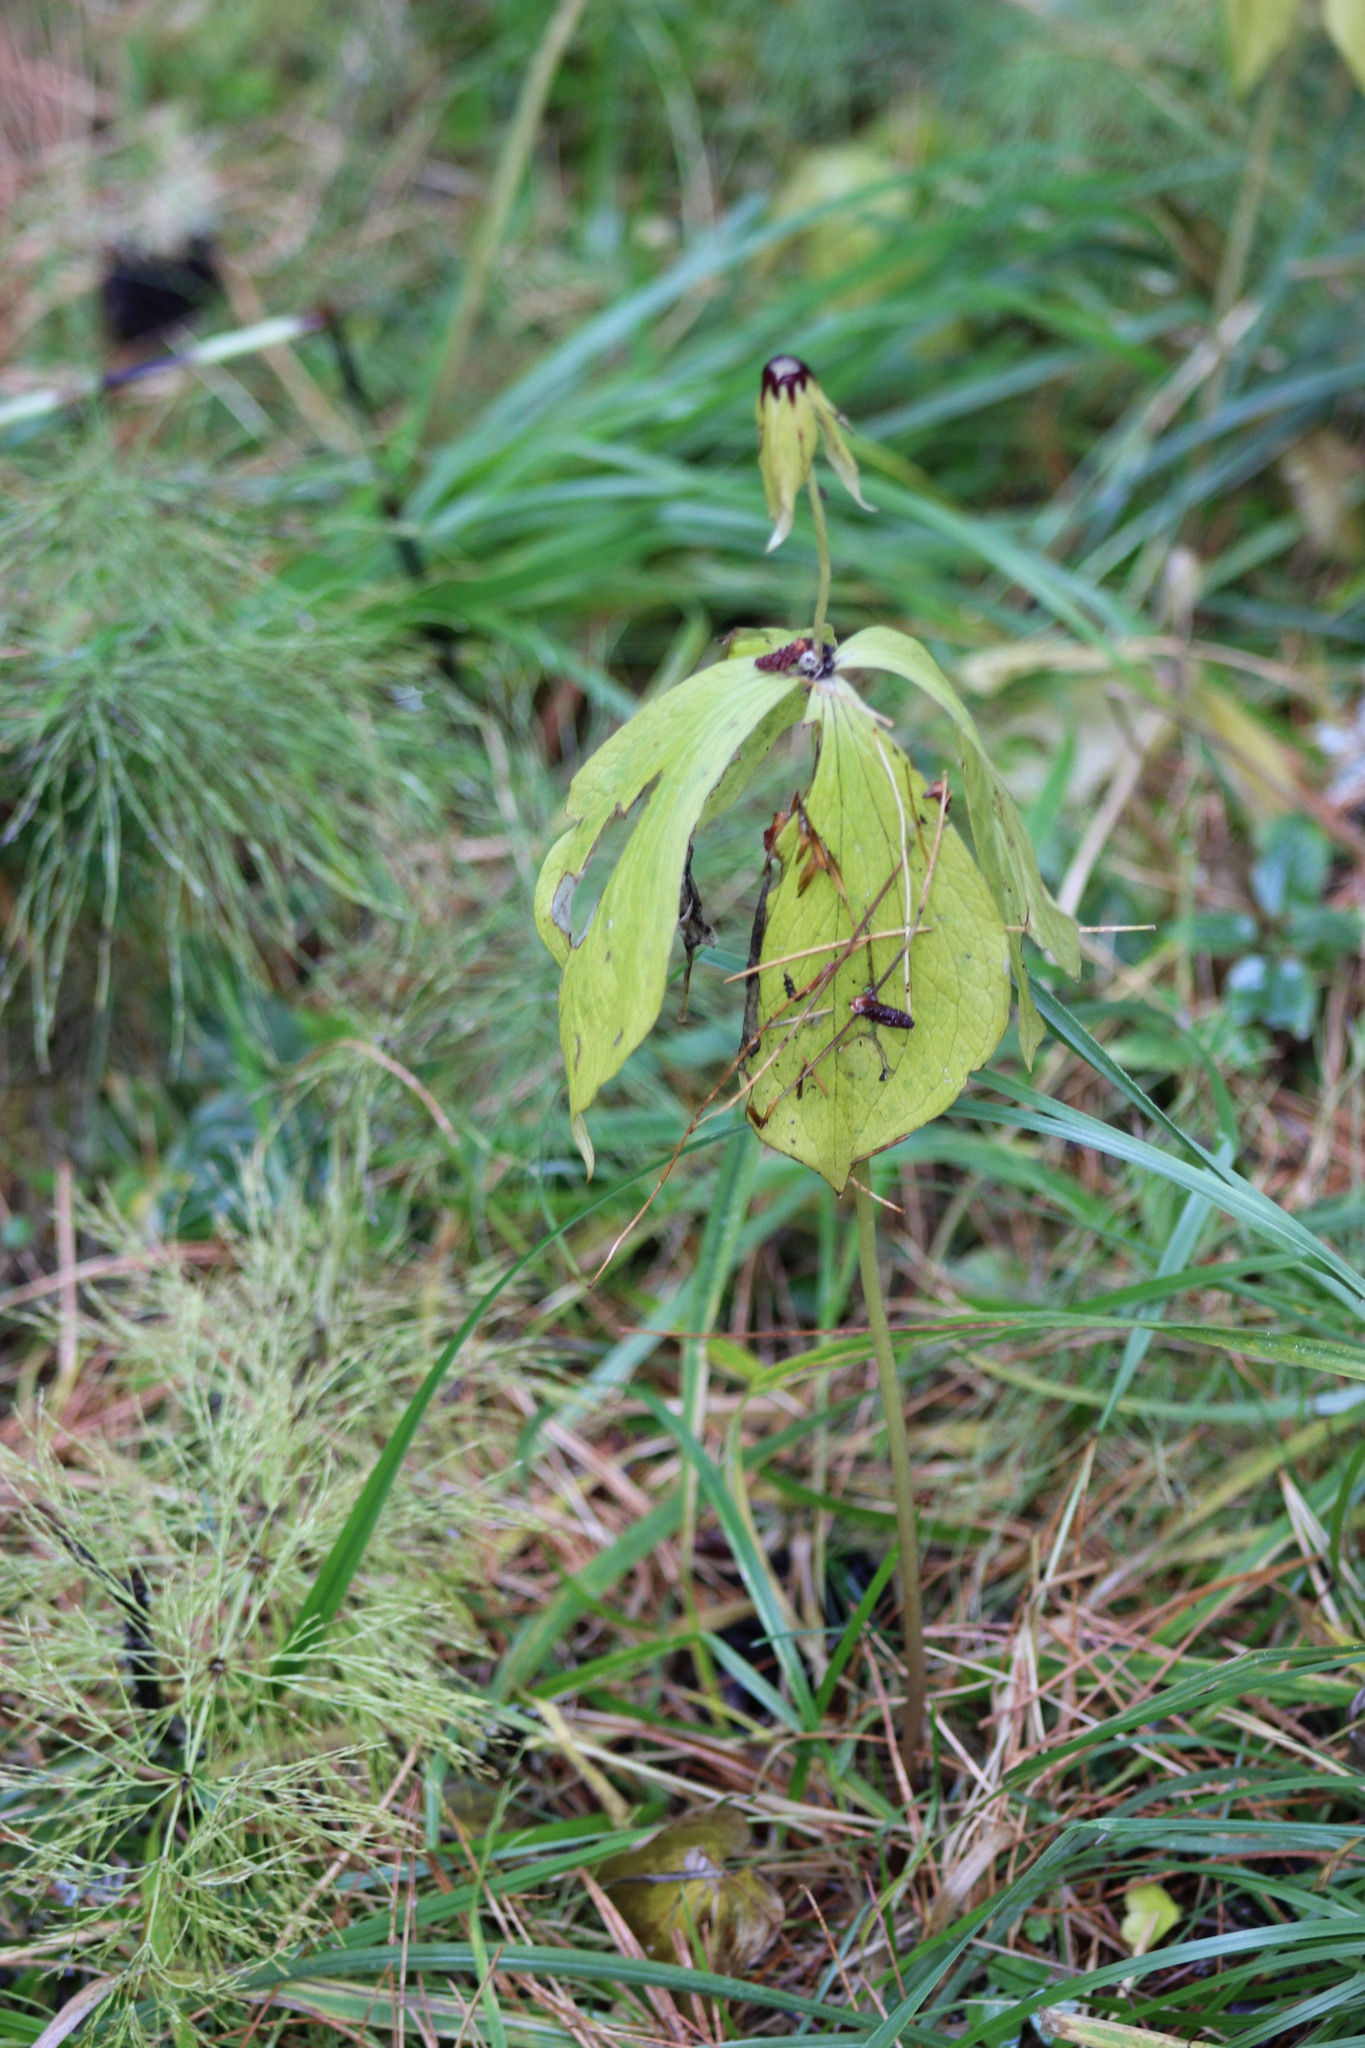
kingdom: Plantae
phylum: Tracheophyta
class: Liliopsida
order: Liliales
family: Melanthiaceae
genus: Paris
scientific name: Paris quadrifolia
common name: Herb-paris
